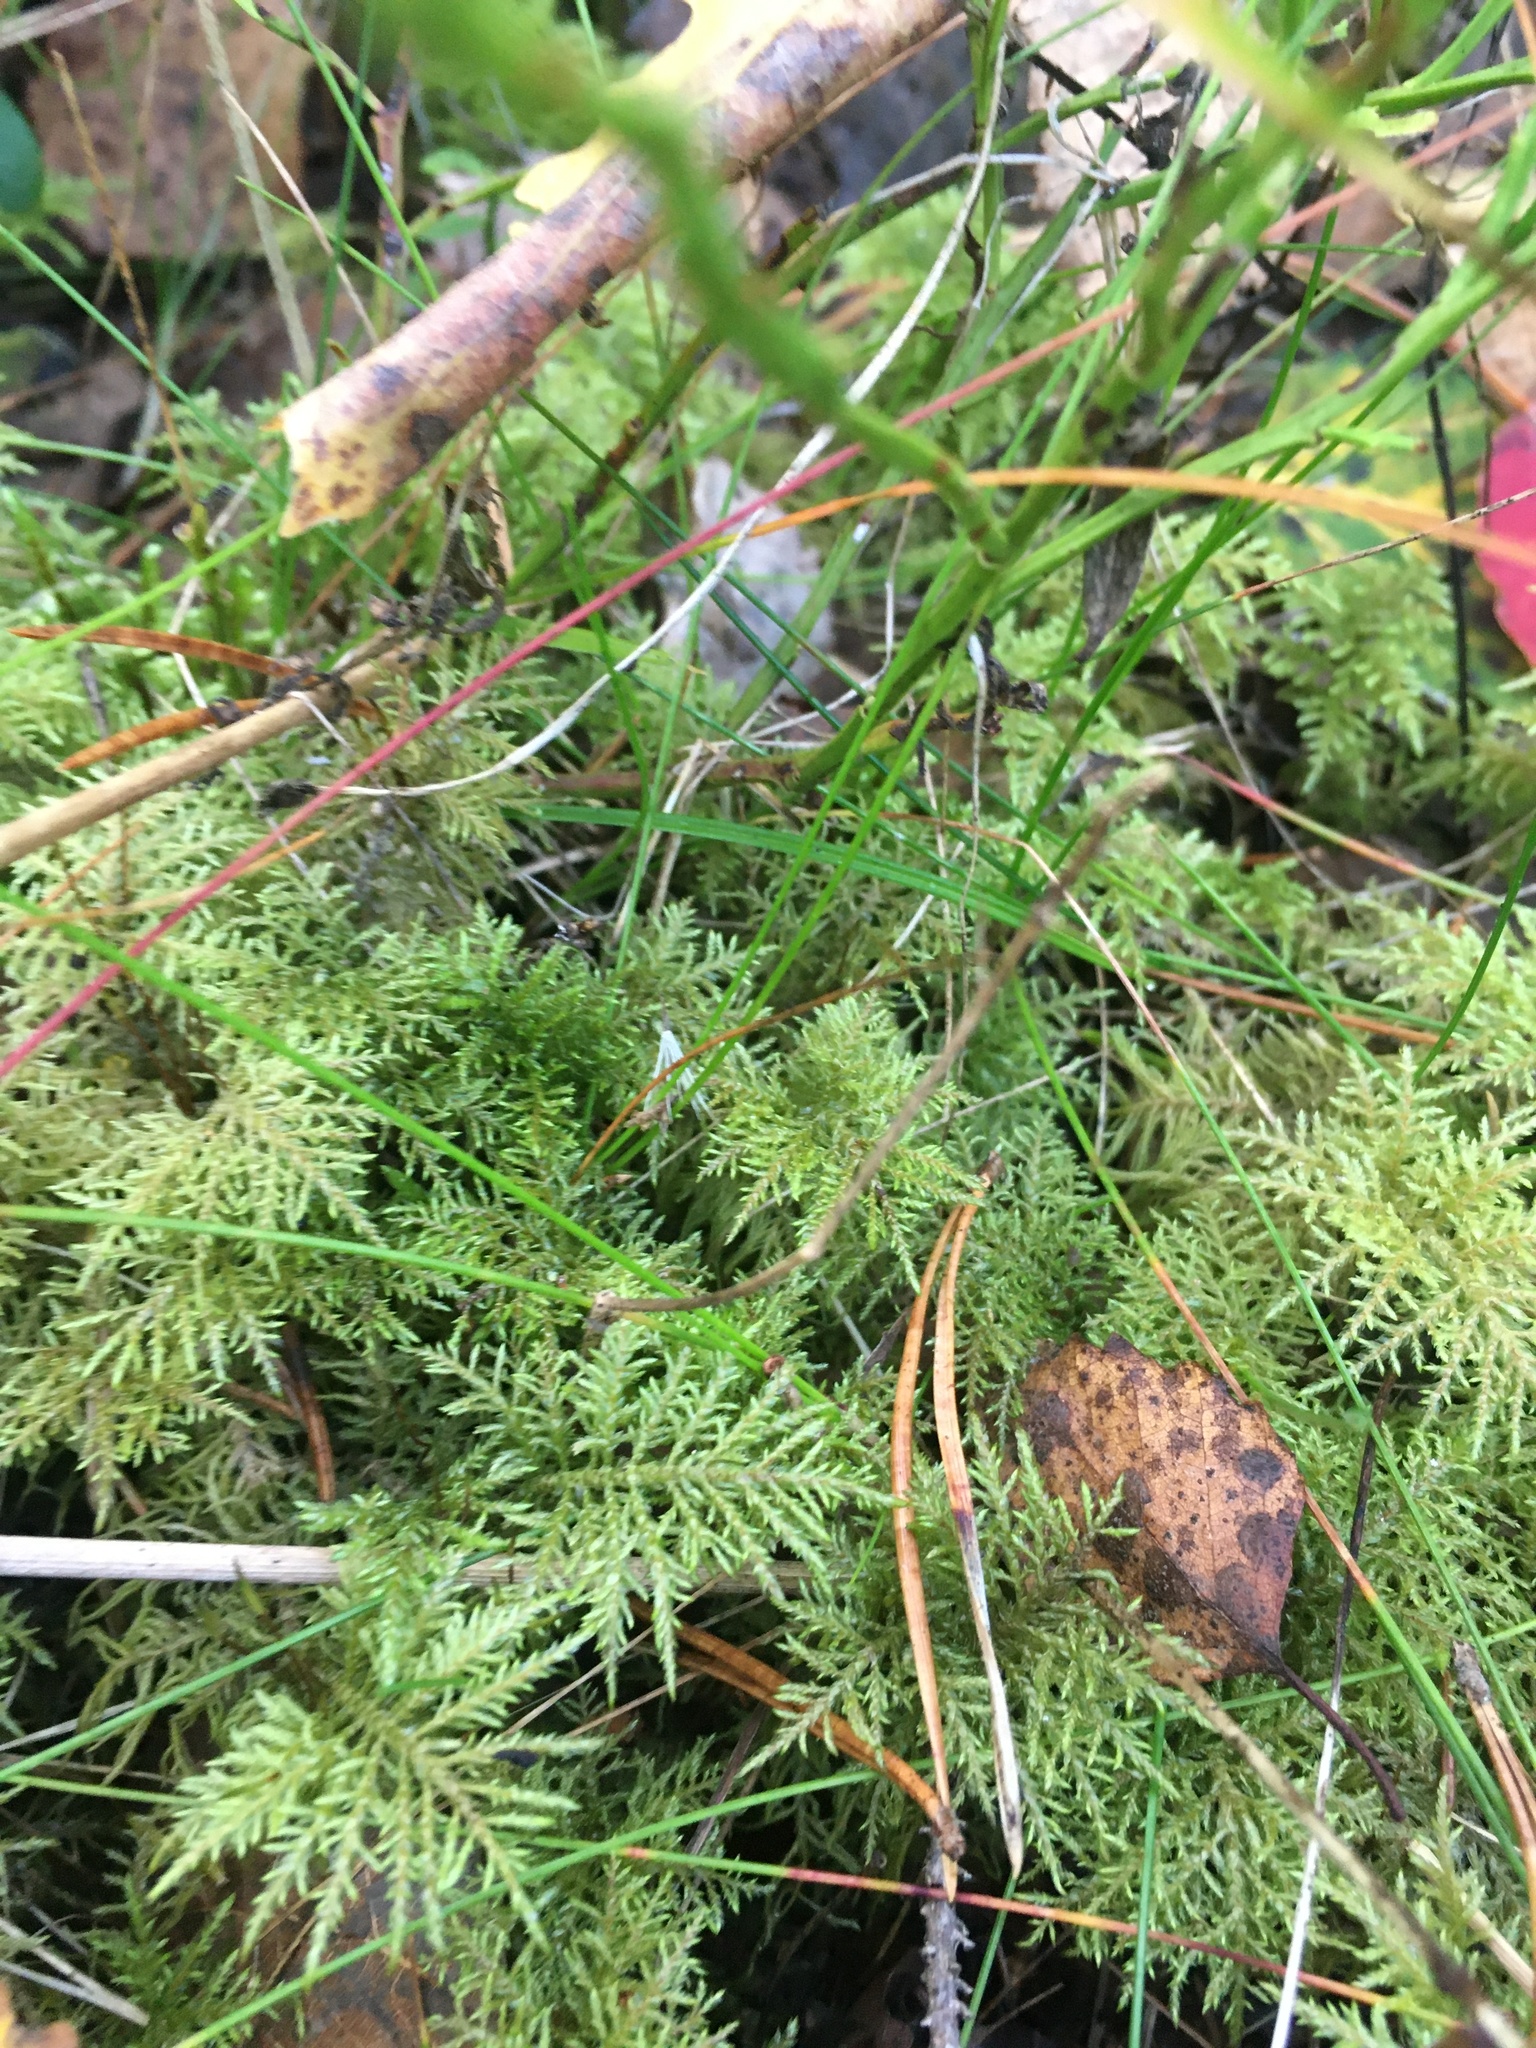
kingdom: Plantae
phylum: Bryophyta
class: Bryopsida
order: Hypnales
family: Hylocomiaceae
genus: Hylocomium
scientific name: Hylocomium splendens
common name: Stairstep moss
